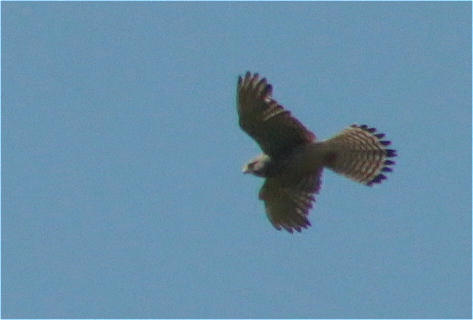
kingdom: Animalia
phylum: Chordata
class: Aves
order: Falconiformes
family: Falconidae
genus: Falco
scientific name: Falco tinnunculus
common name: Common kestrel
